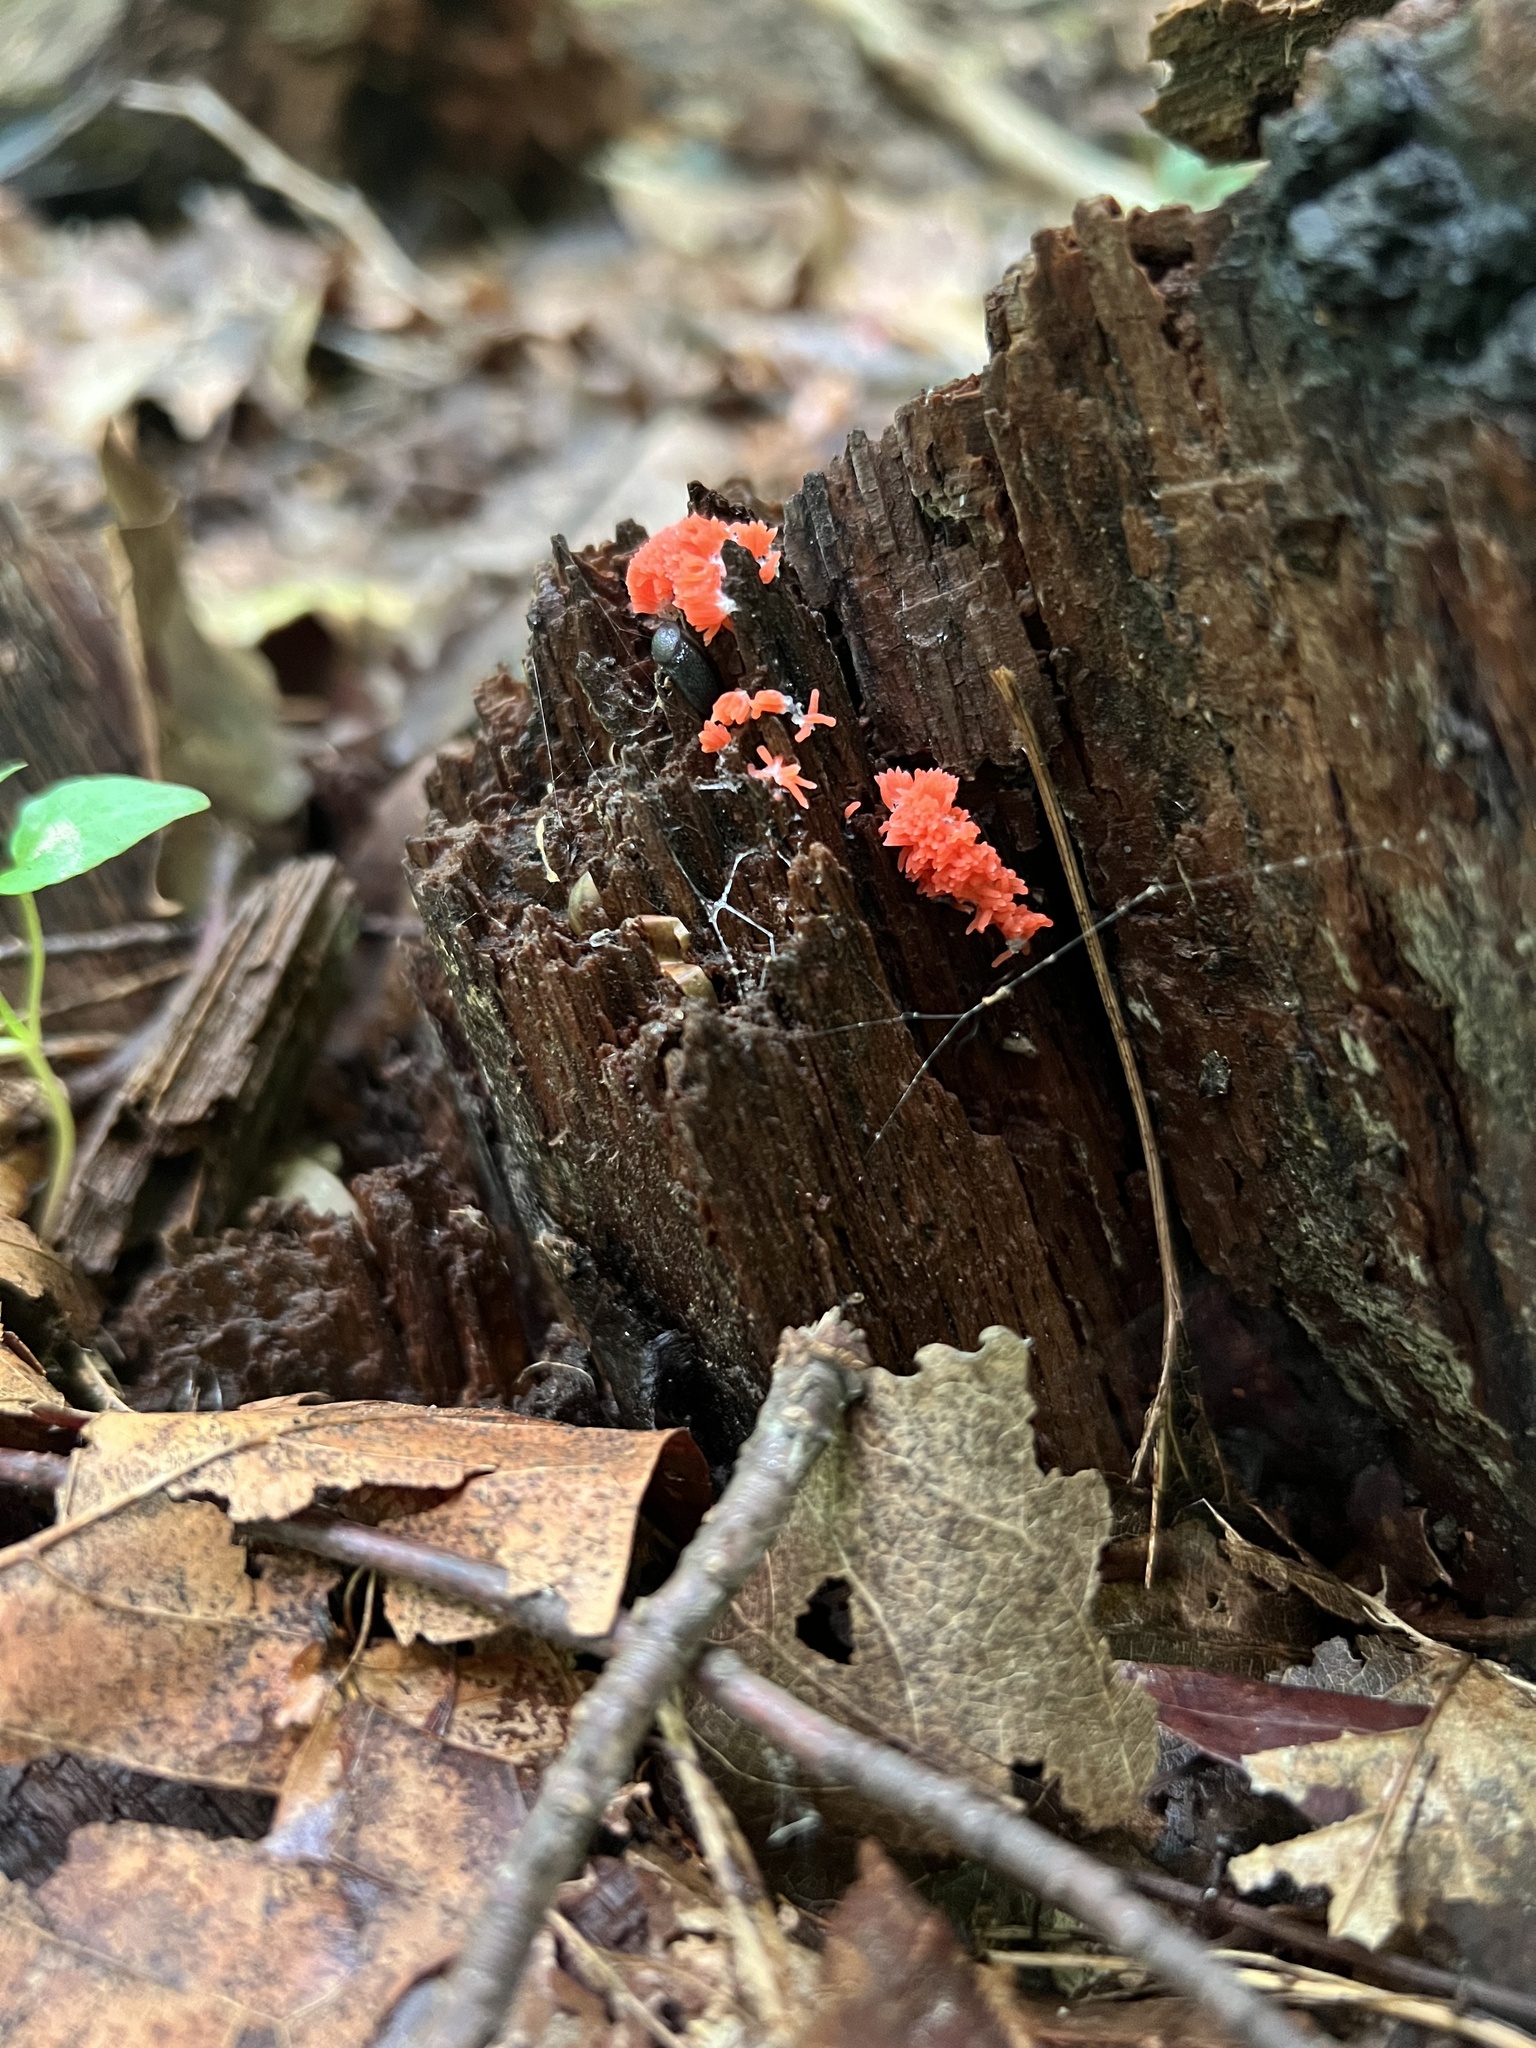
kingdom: Protozoa
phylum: Mycetozoa
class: Myxomycetes
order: Cribrariales
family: Tubiferaceae
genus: Tubifera
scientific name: Tubifera ferruginosa
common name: Red raspberry slime mold
